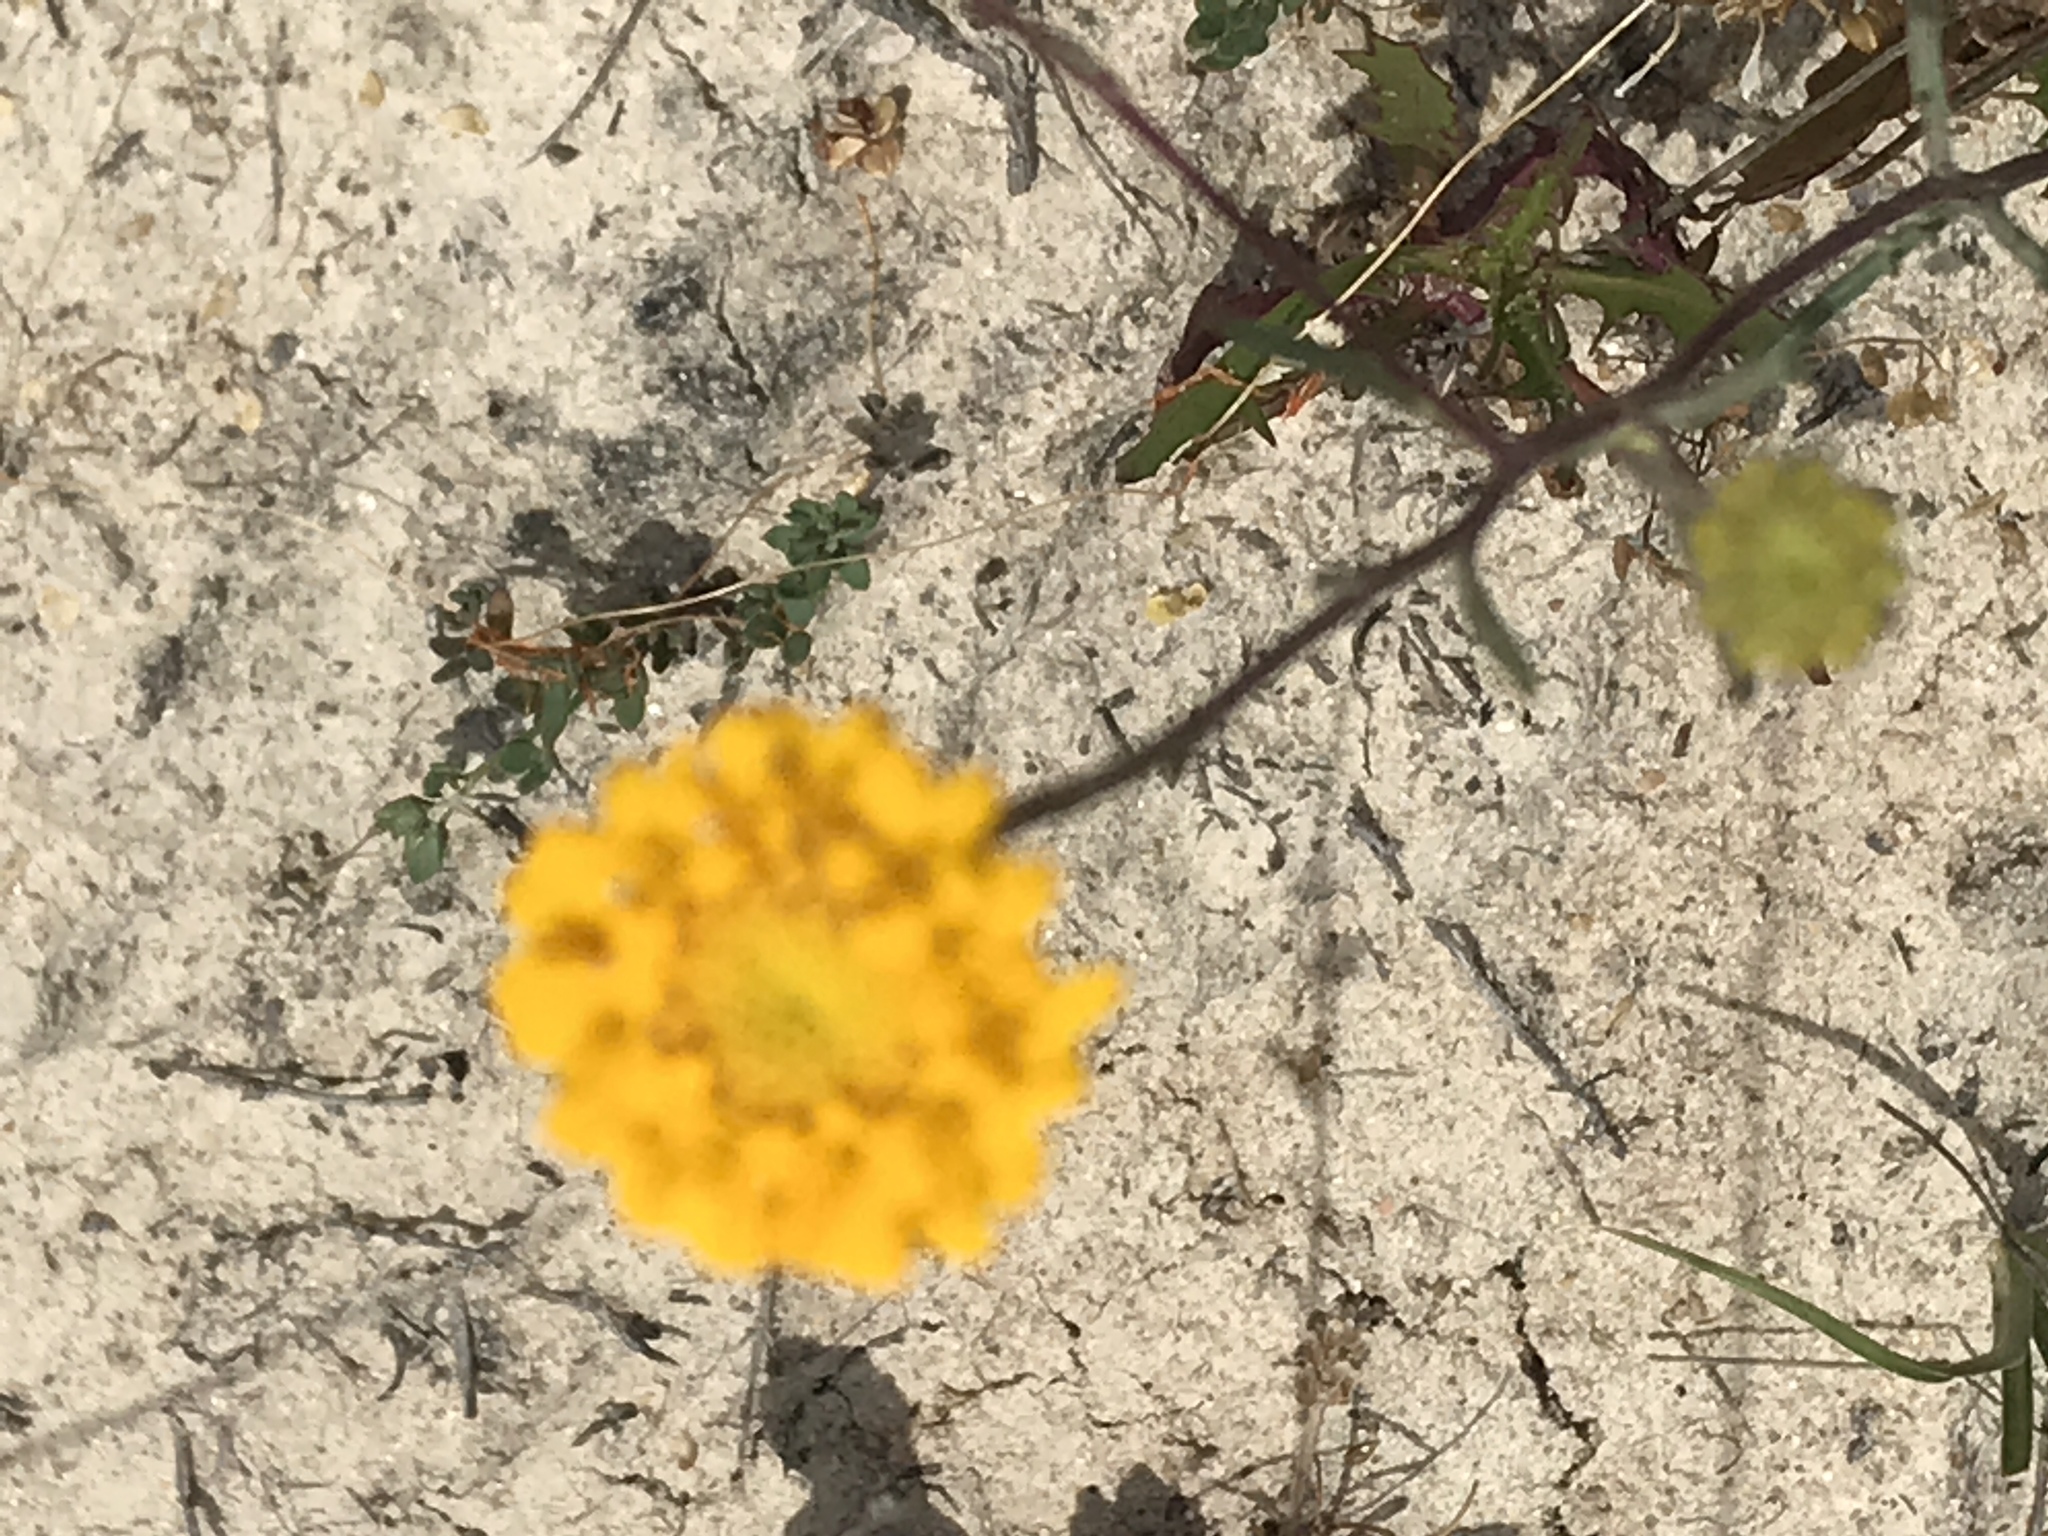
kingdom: Plantae
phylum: Tracheophyta
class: Magnoliopsida
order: Asterales
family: Asteraceae
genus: Chaenactis
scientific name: Chaenactis glabriuscula
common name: Yellow pincushion
